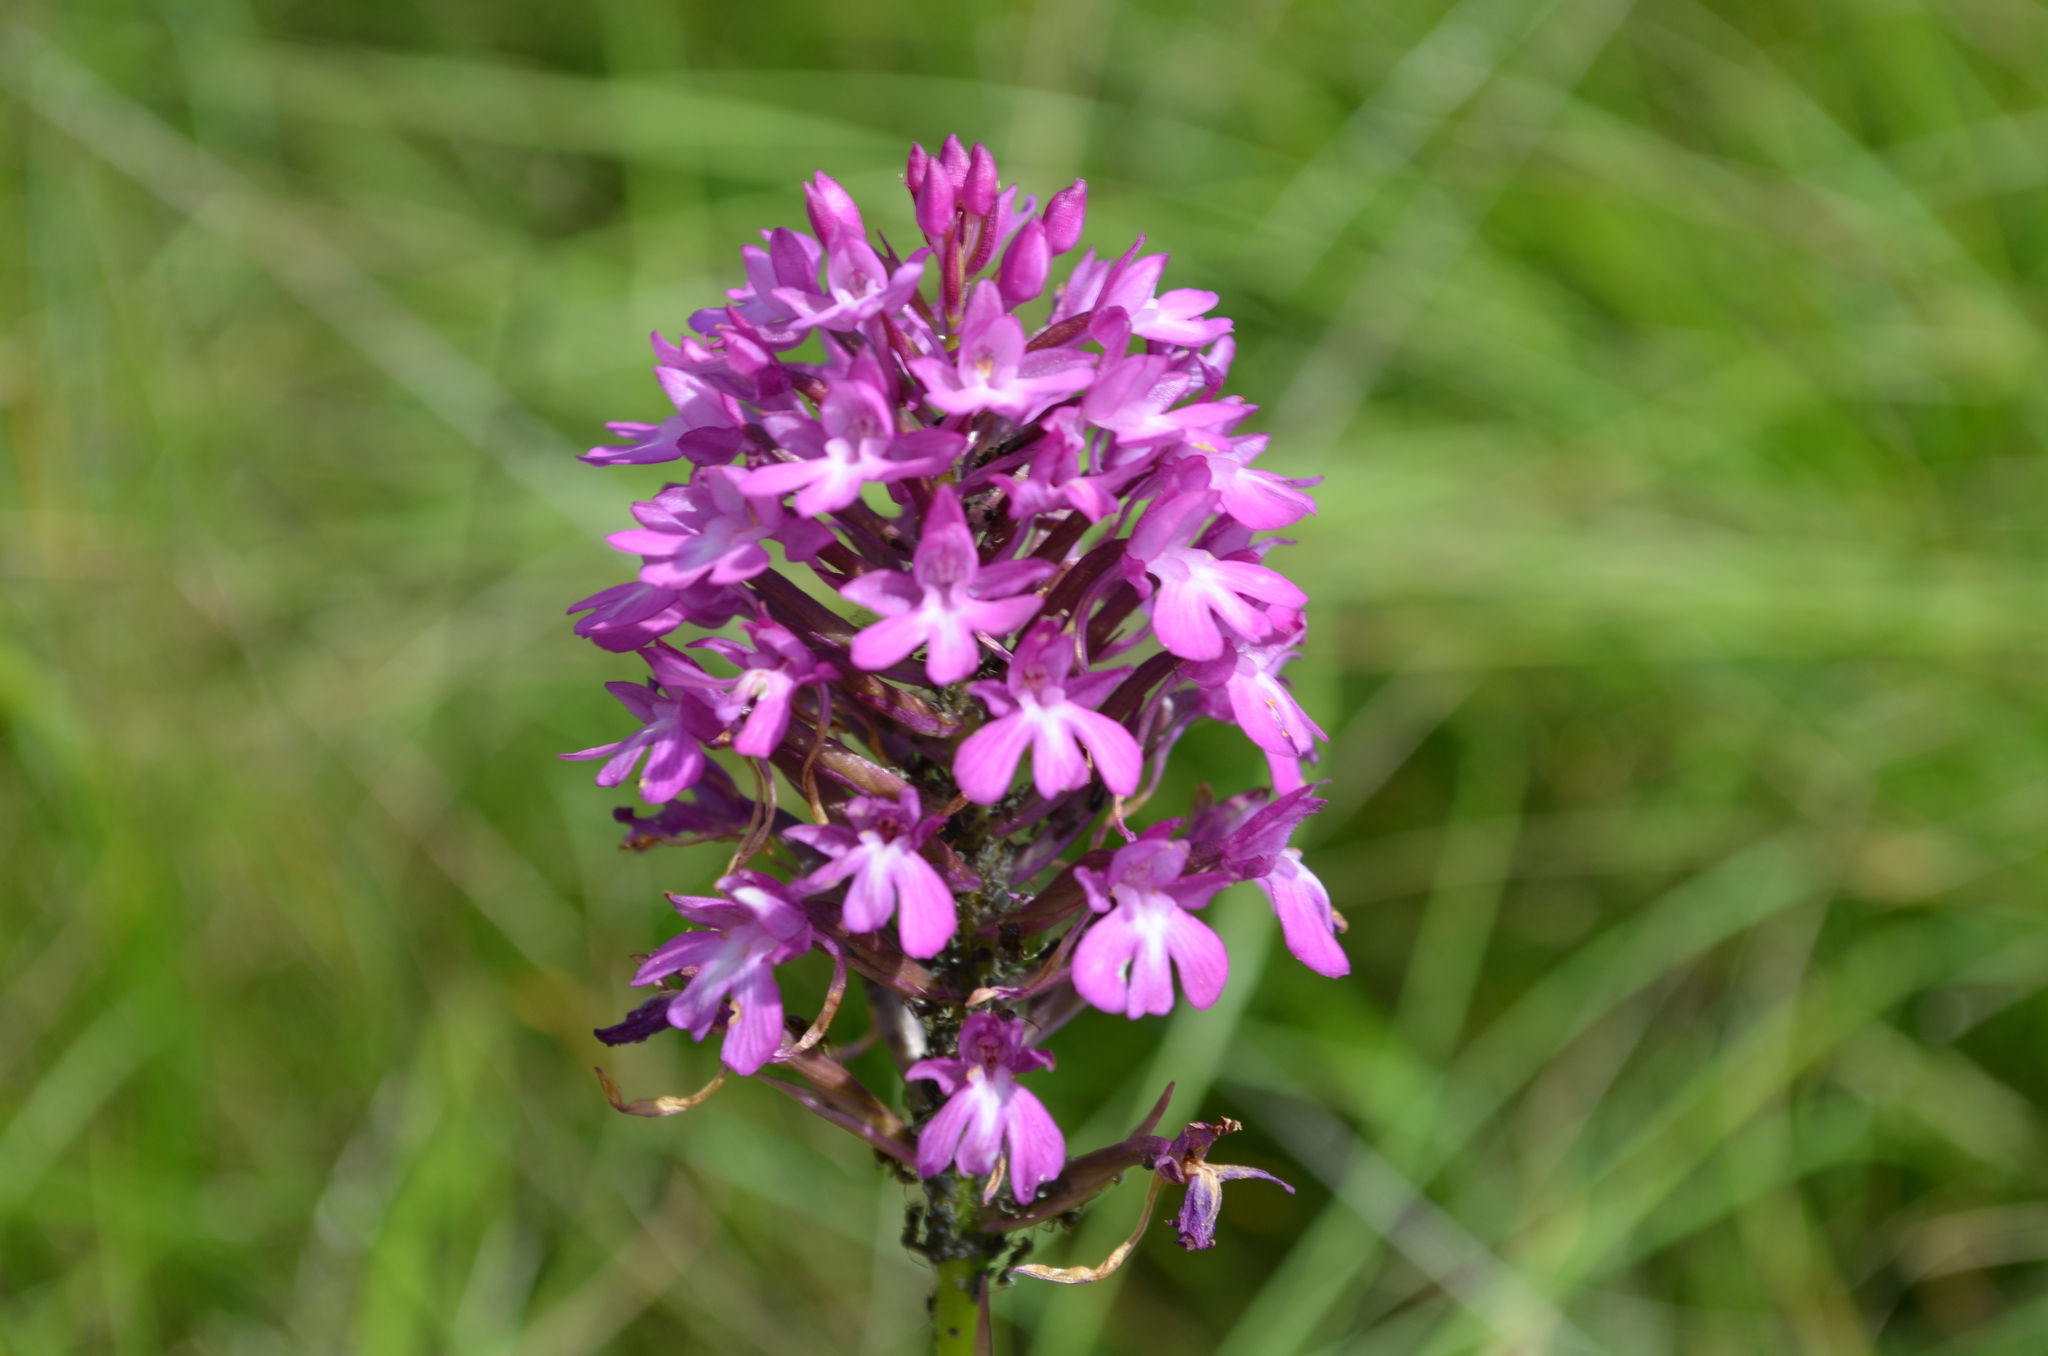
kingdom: Plantae
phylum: Tracheophyta
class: Liliopsida
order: Asparagales
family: Orchidaceae
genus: Anacamptis
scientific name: Anacamptis pyramidalis
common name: Pyramidal orchid
